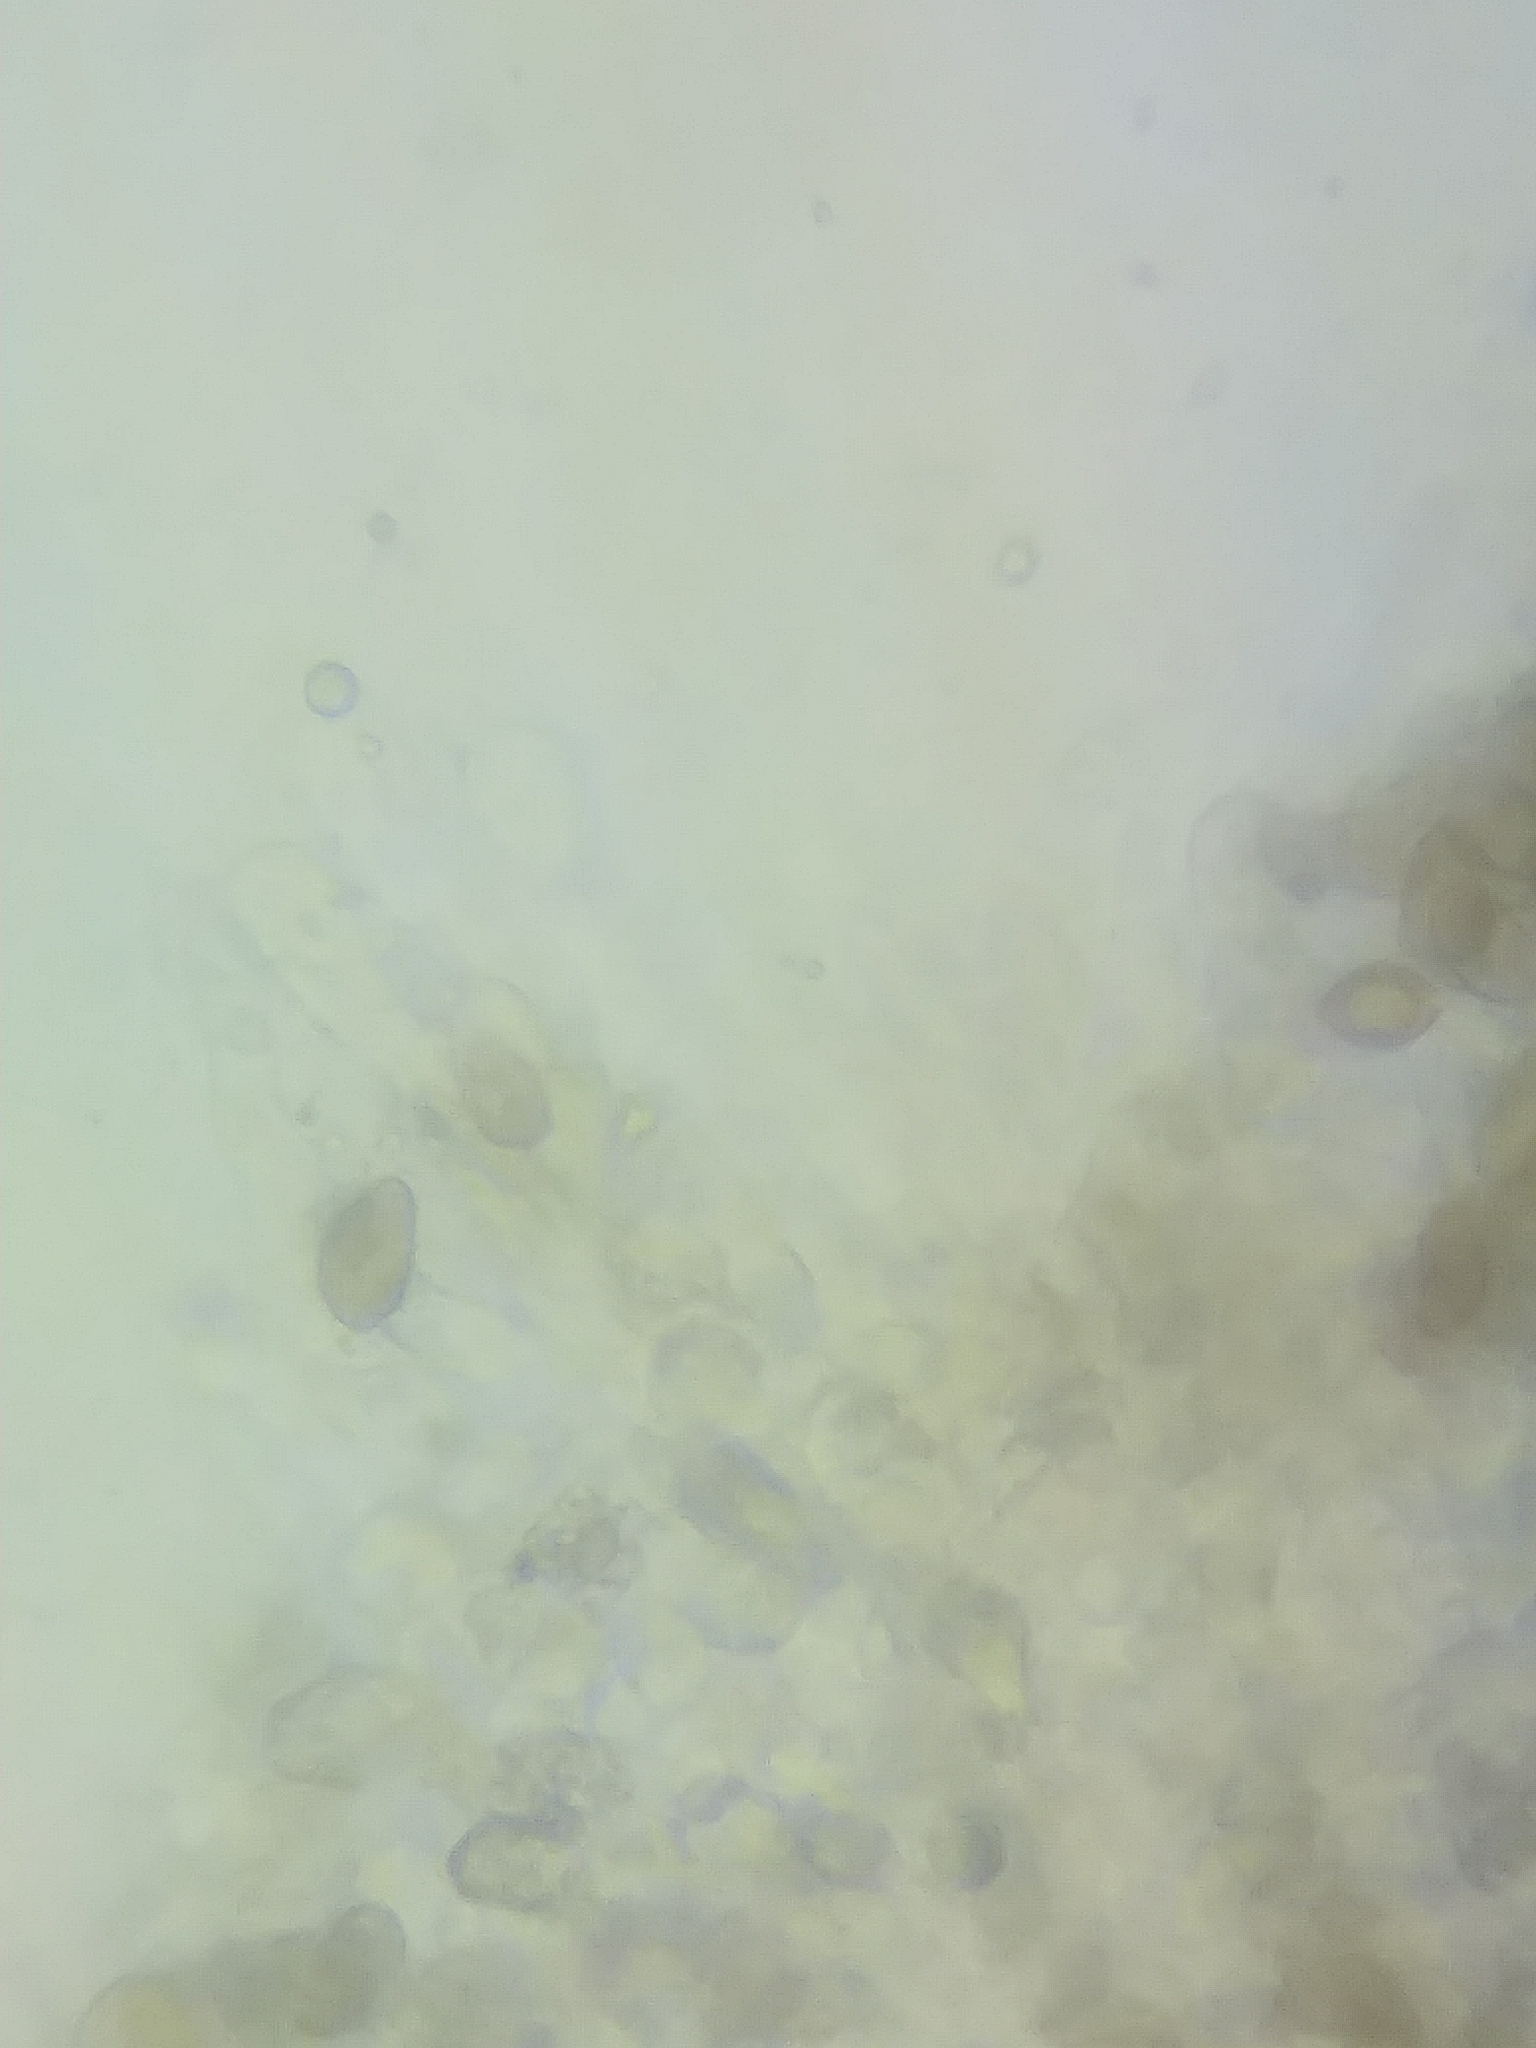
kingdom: Fungi
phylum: Basidiomycota
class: Agaricomycetes
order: Agaricales
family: Hymenogastraceae
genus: Hebeloma
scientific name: Hebeloma leucosarx
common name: Birch poisonpie
